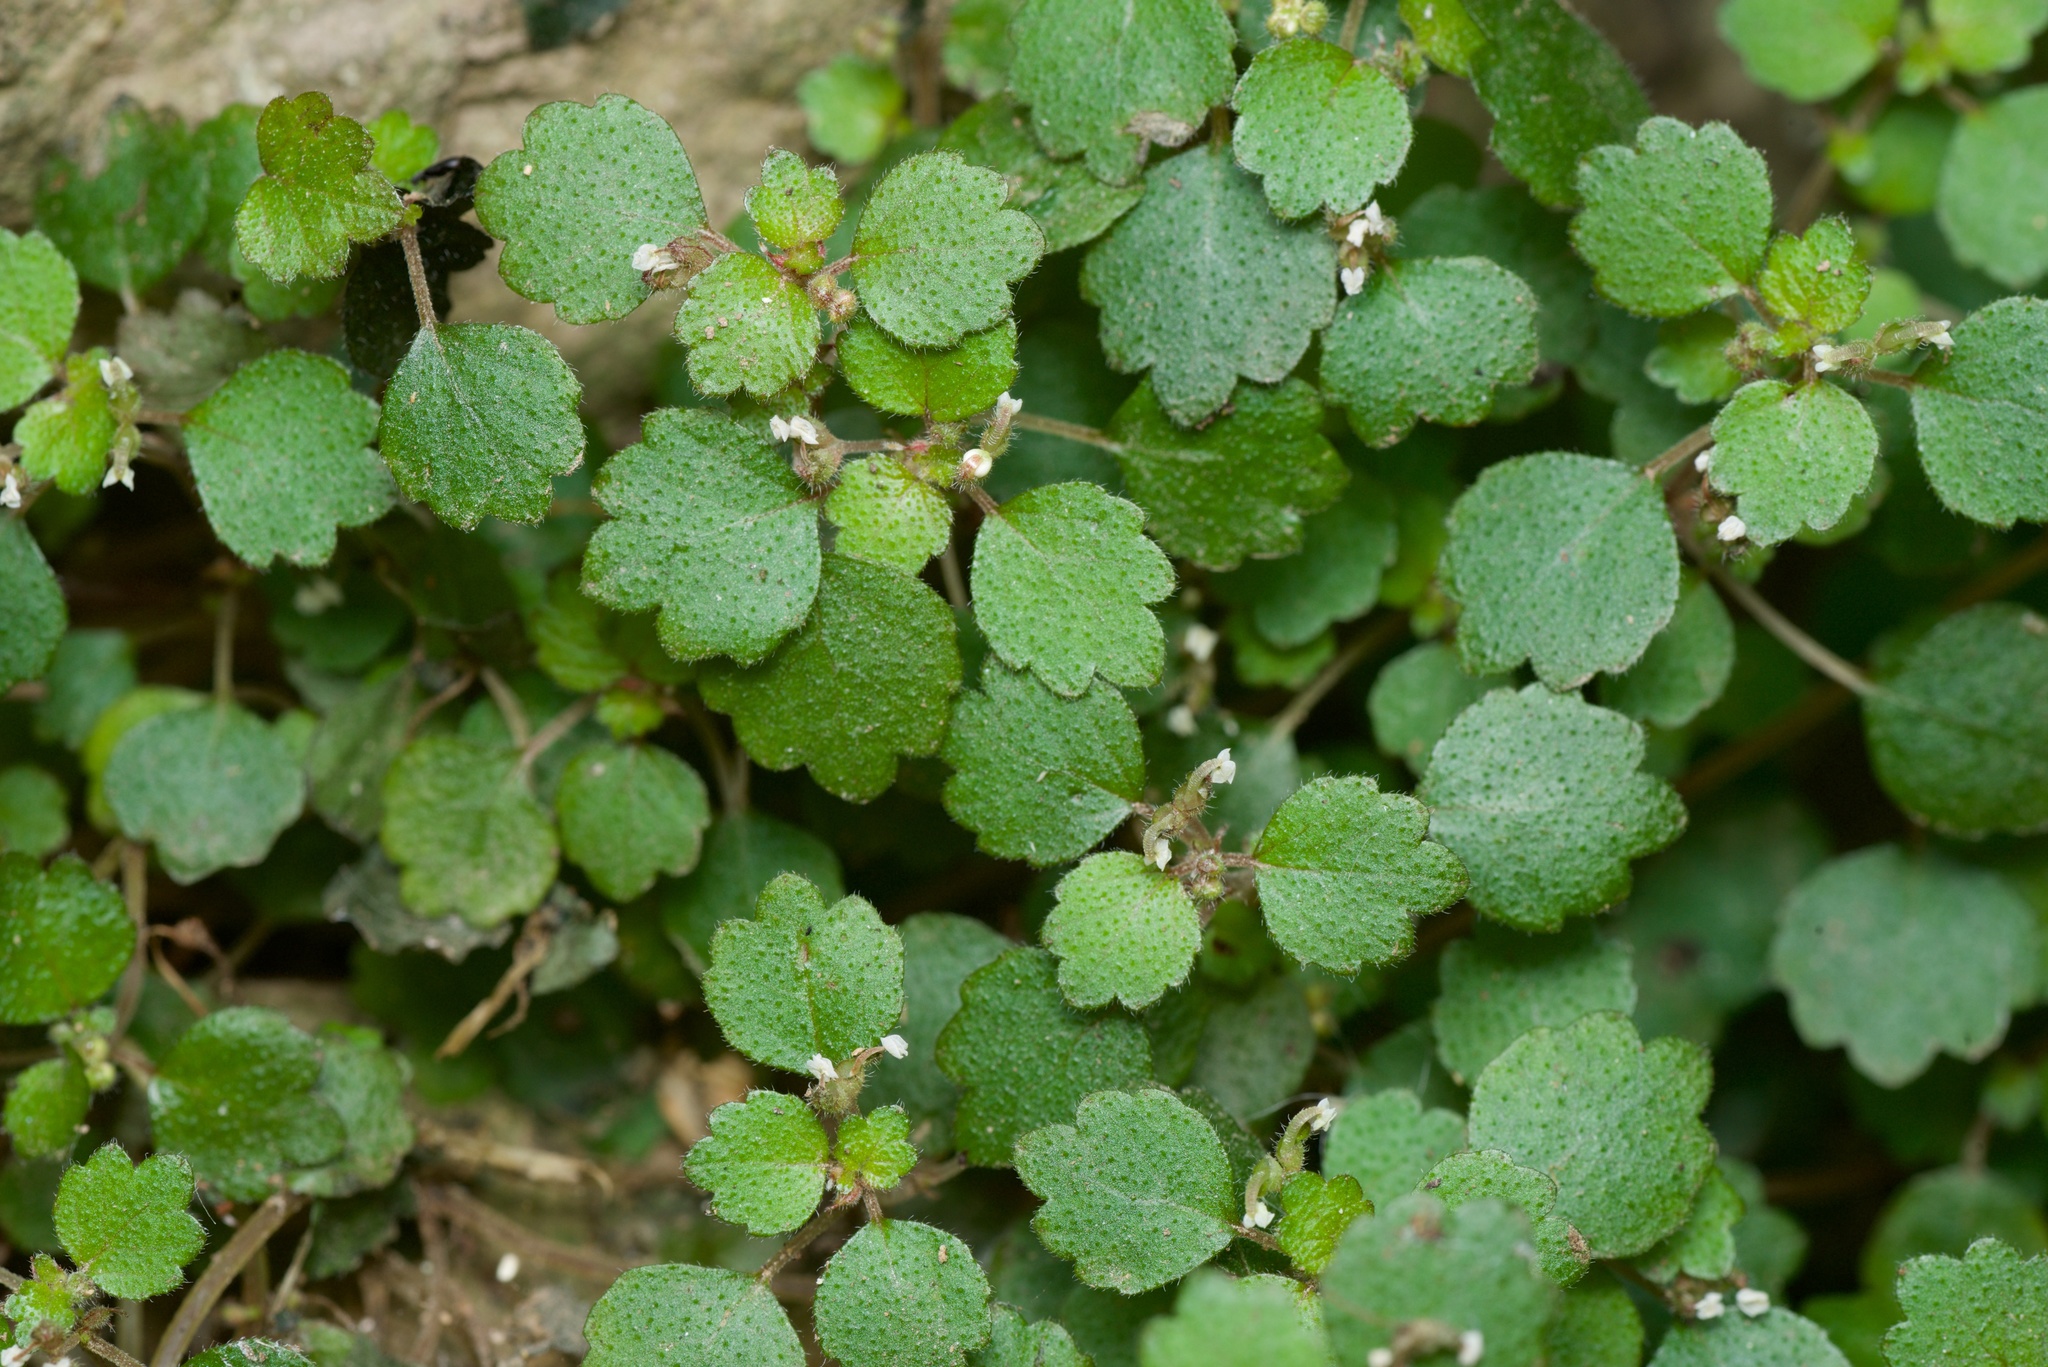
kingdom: Plantae
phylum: Tracheophyta
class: Magnoliopsida
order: Rosales
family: Urticaceae
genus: Australina
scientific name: Australina pusilla
